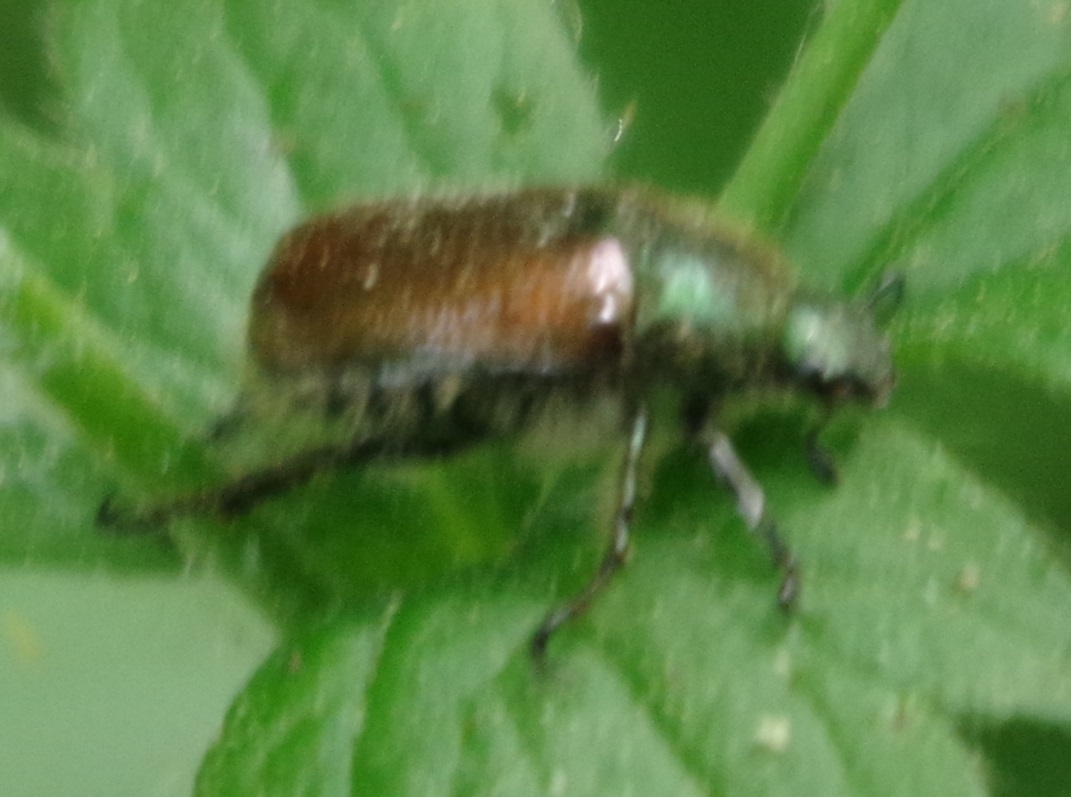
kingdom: Animalia
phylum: Arthropoda
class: Insecta
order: Coleoptera
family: Scarabaeidae
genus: Phyllopertha
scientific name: Phyllopertha horticola
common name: Garden chafer
